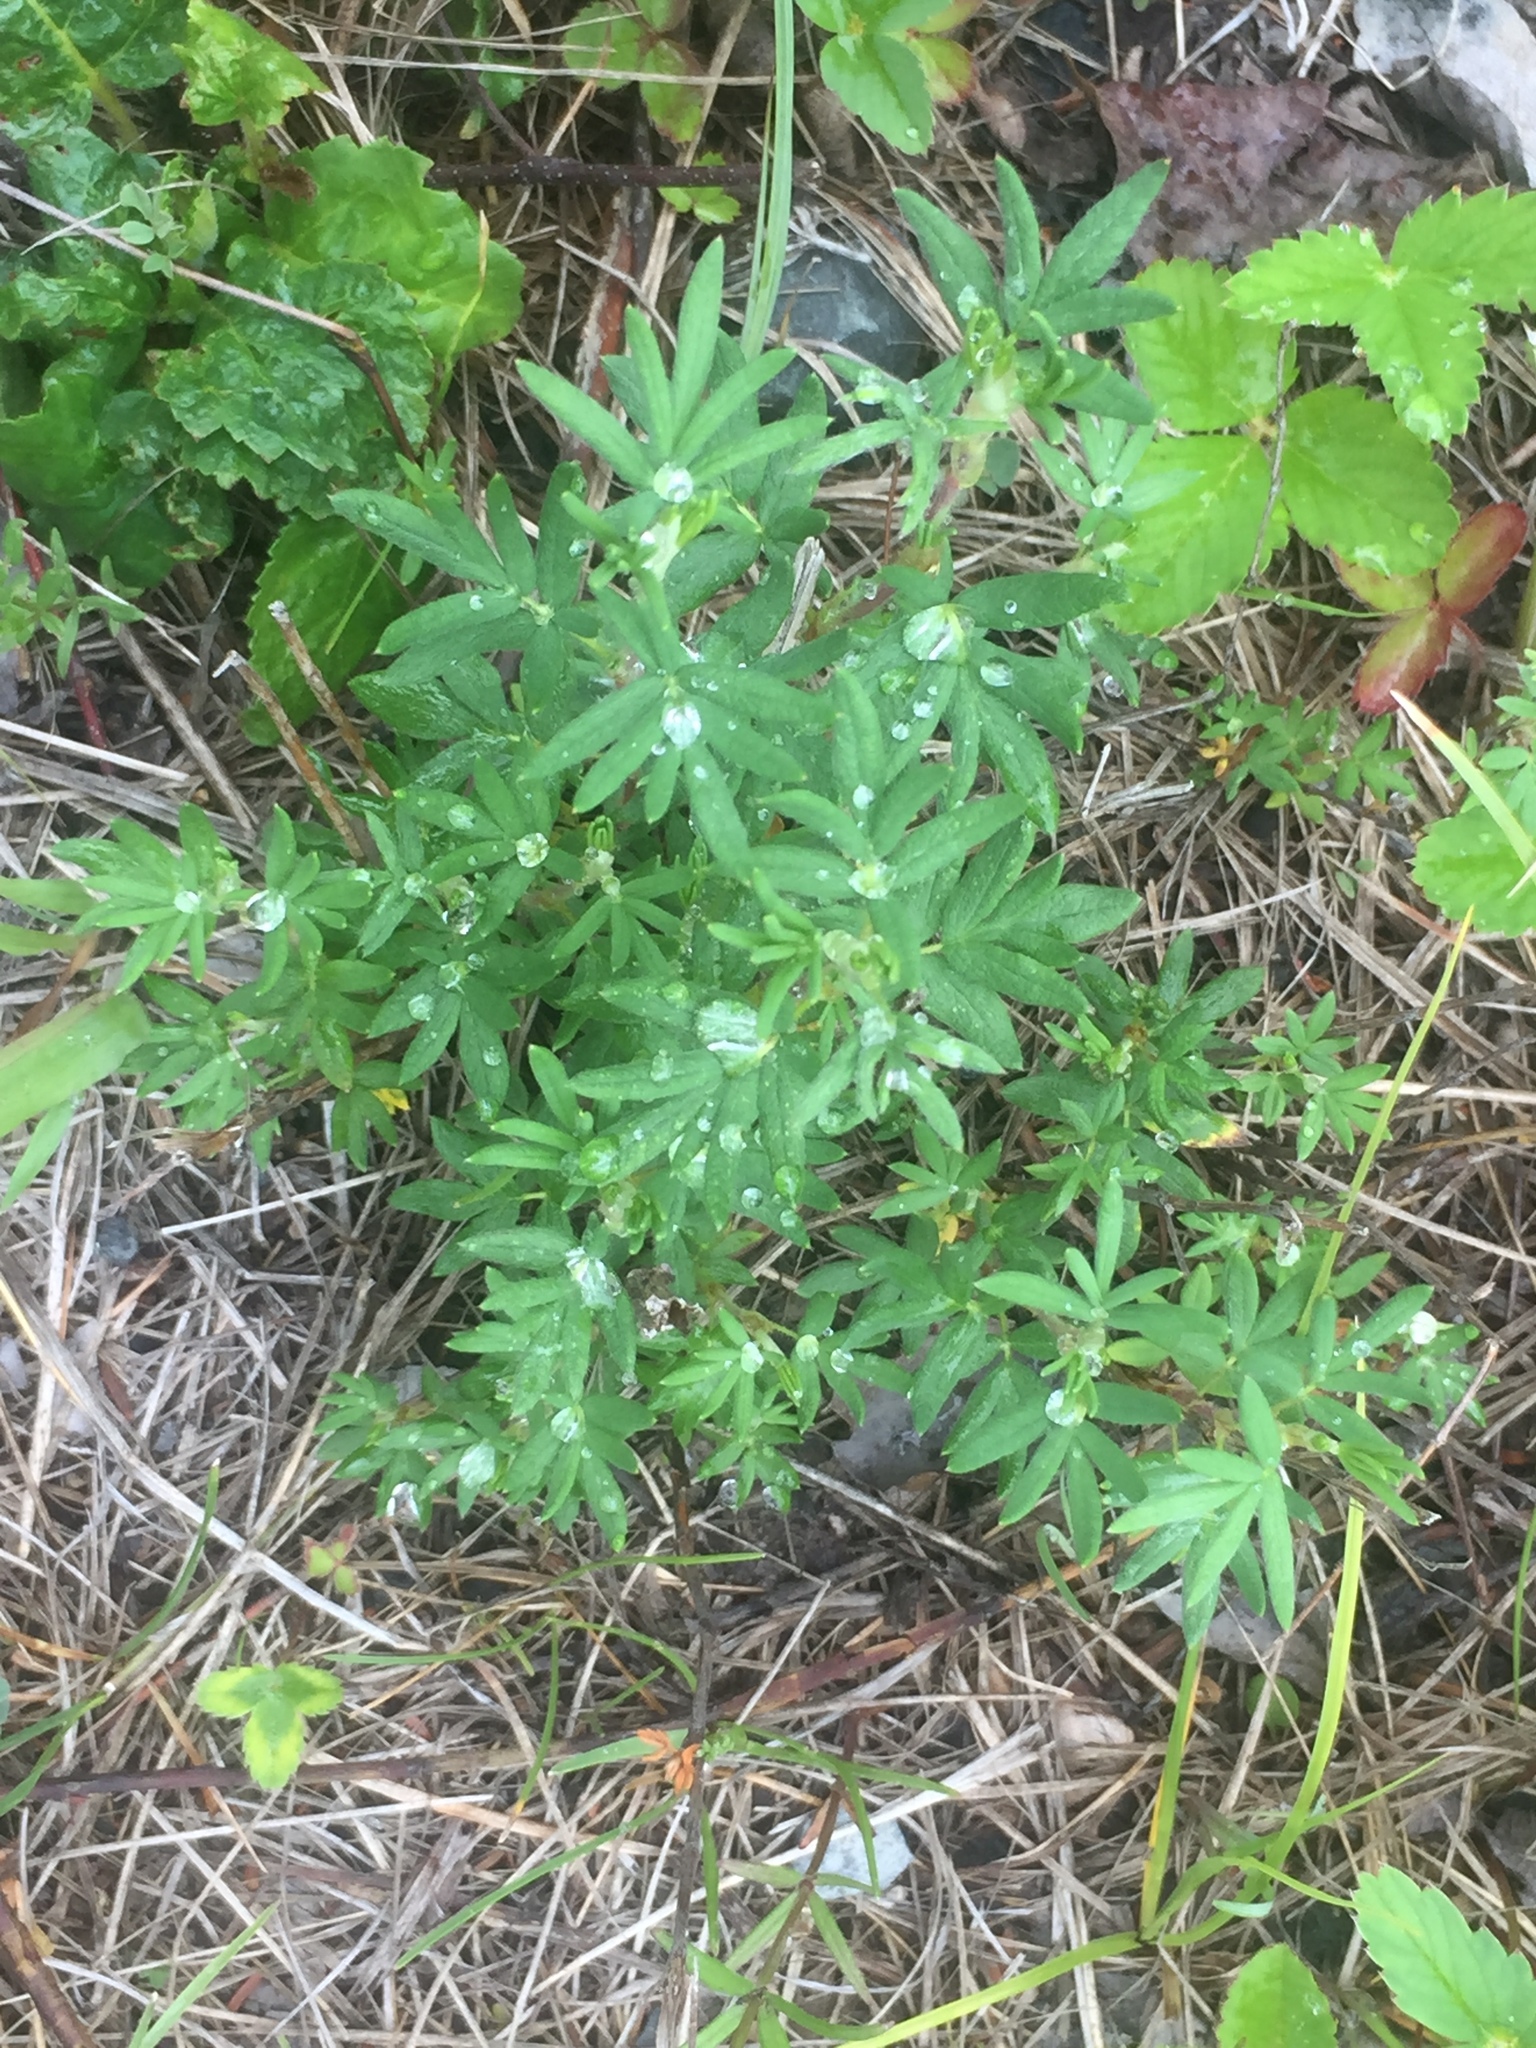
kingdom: Plantae
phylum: Tracheophyta
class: Magnoliopsida
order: Rosales
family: Rosaceae
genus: Dasiphora
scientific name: Dasiphora fruticosa
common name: Shrubby cinquefoil
